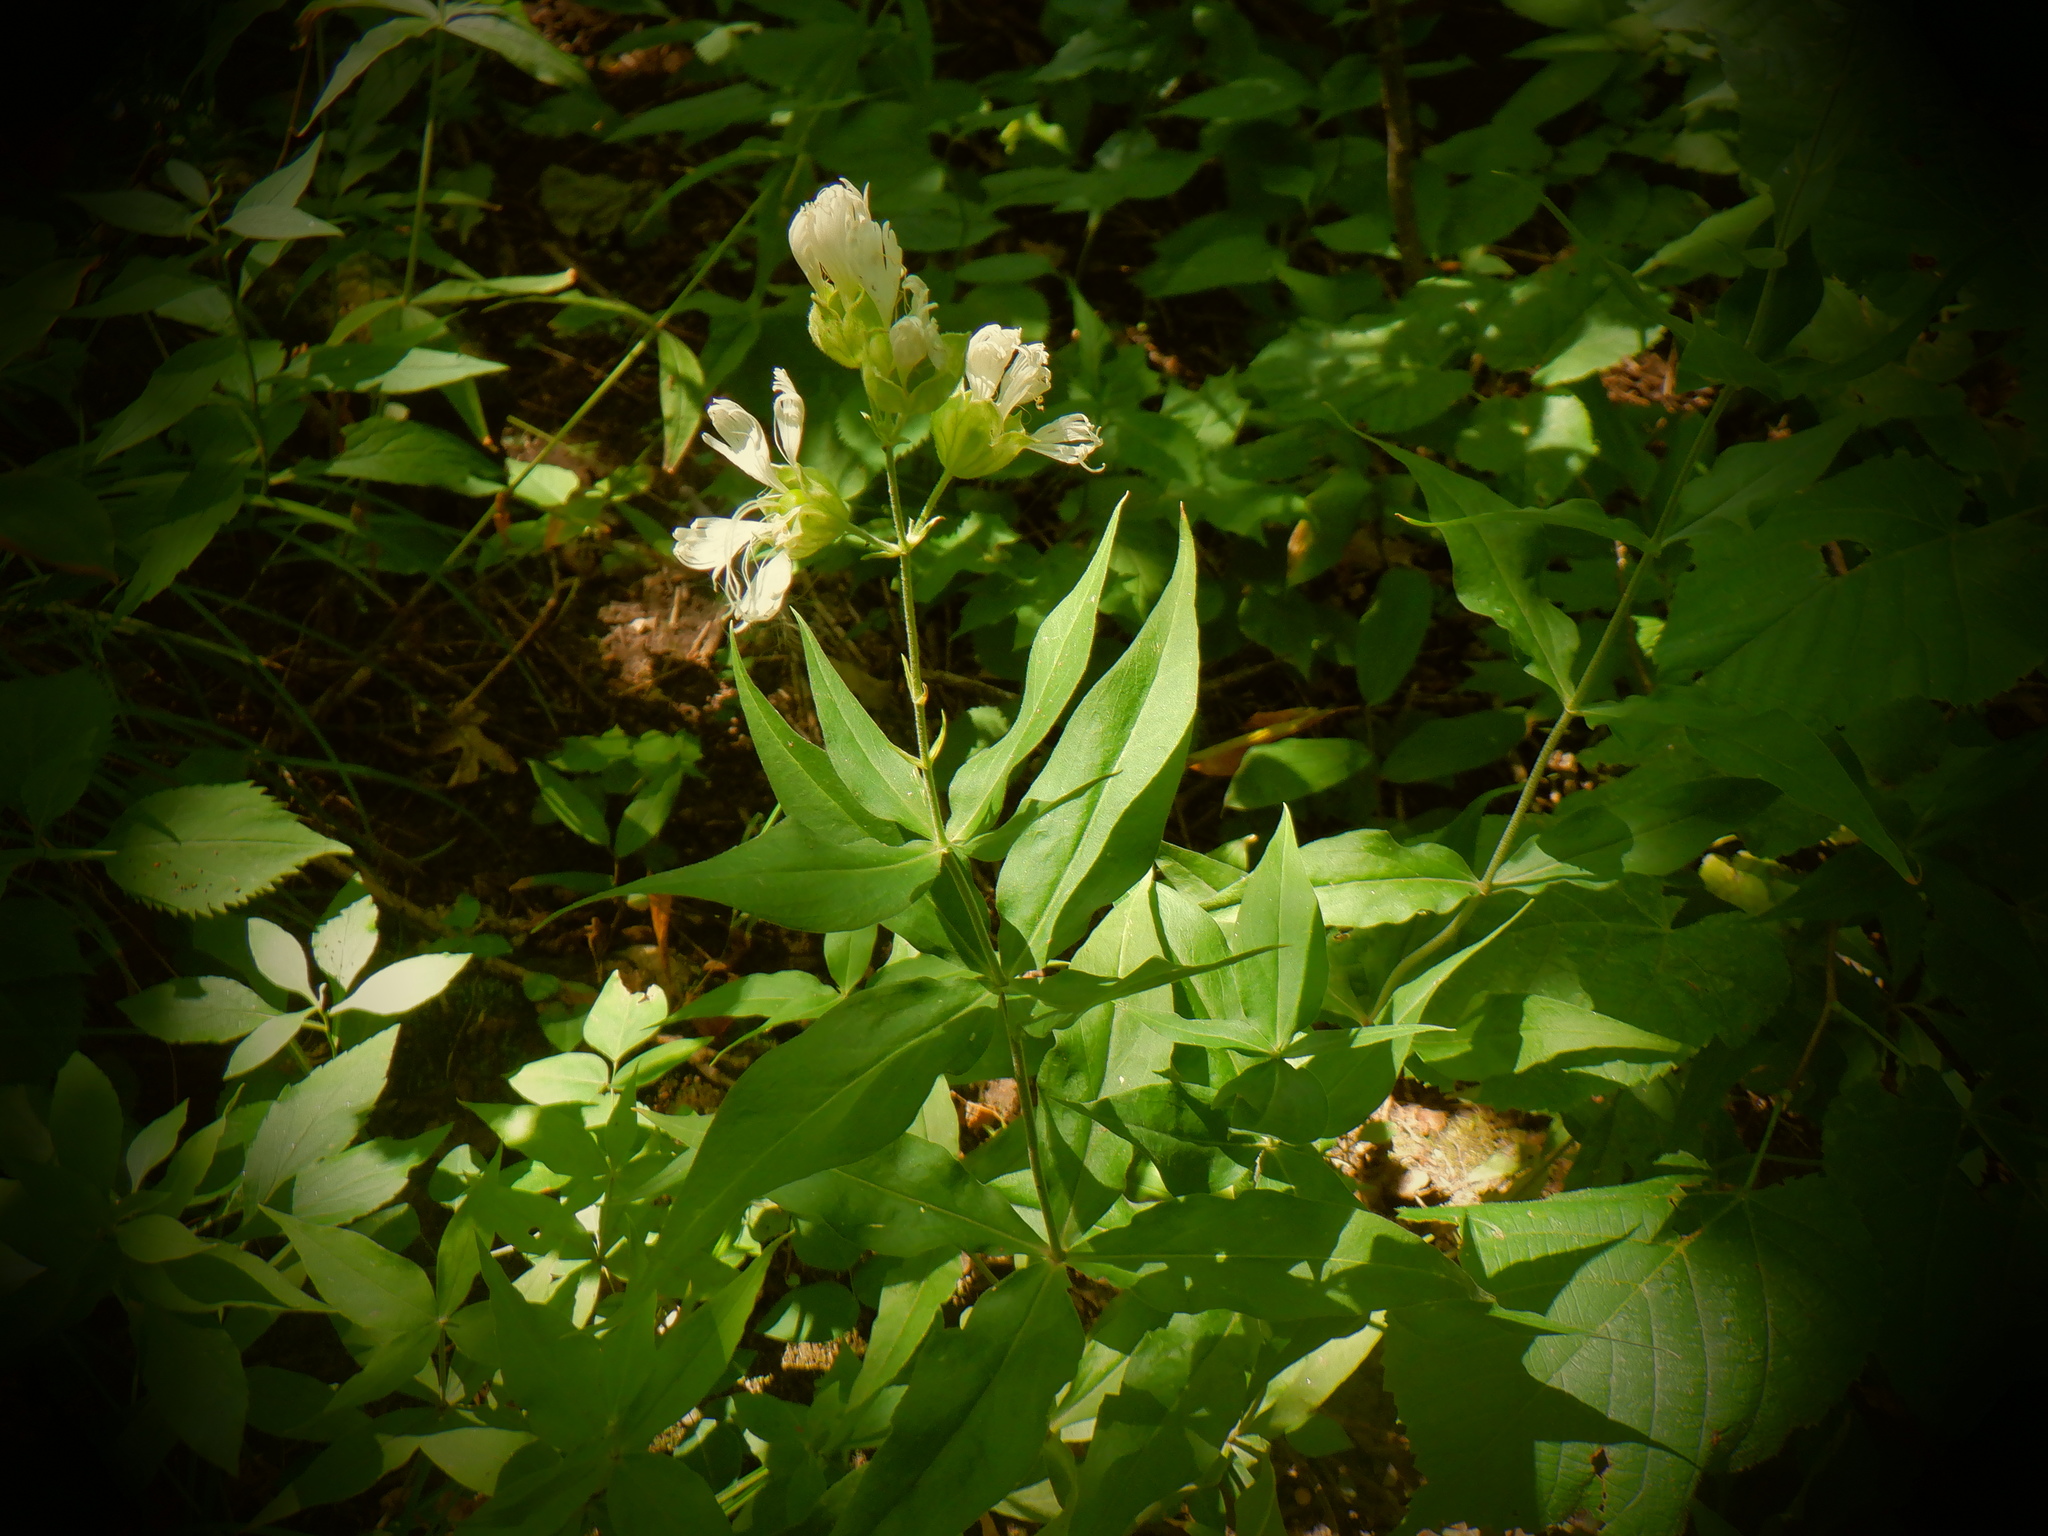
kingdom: Plantae
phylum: Tracheophyta
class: Magnoliopsida
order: Caryophyllales
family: Caryophyllaceae
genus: Silene
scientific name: Silene stellata
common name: Starry campion
